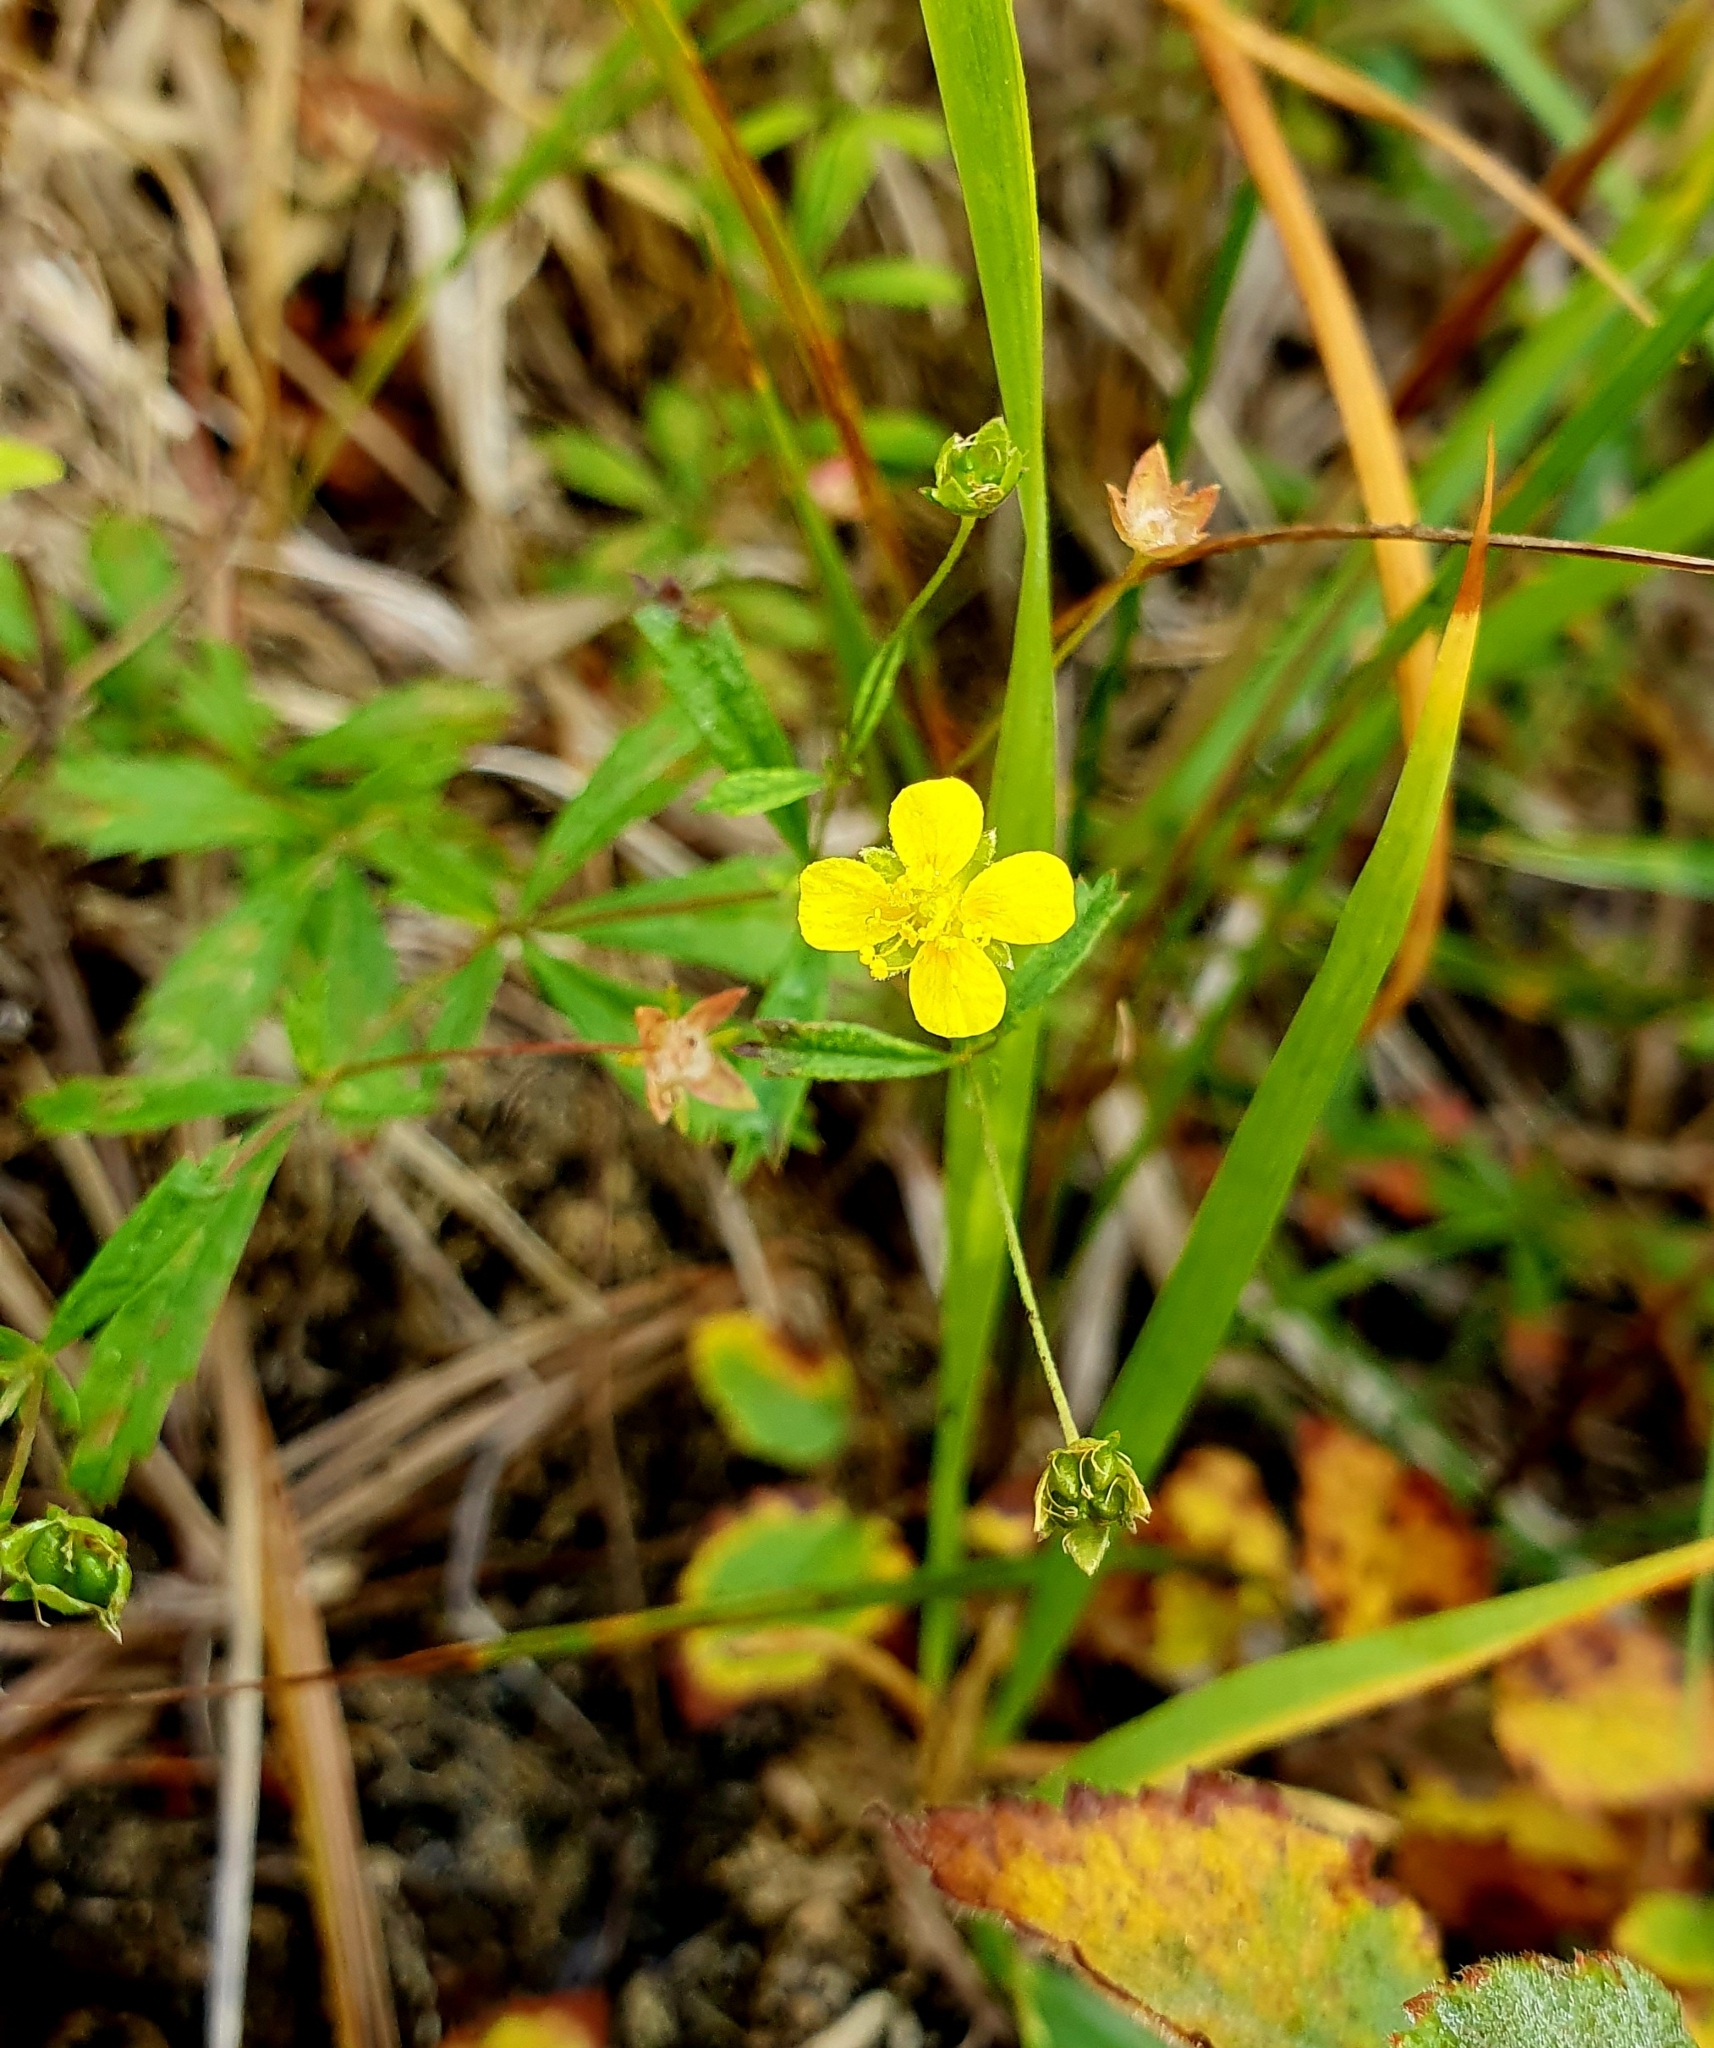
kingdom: Plantae
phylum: Tracheophyta
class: Magnoliopsida
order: Rosales
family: Rosaceae
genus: Potentilla
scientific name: Potentilla erecta
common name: Tormentil
